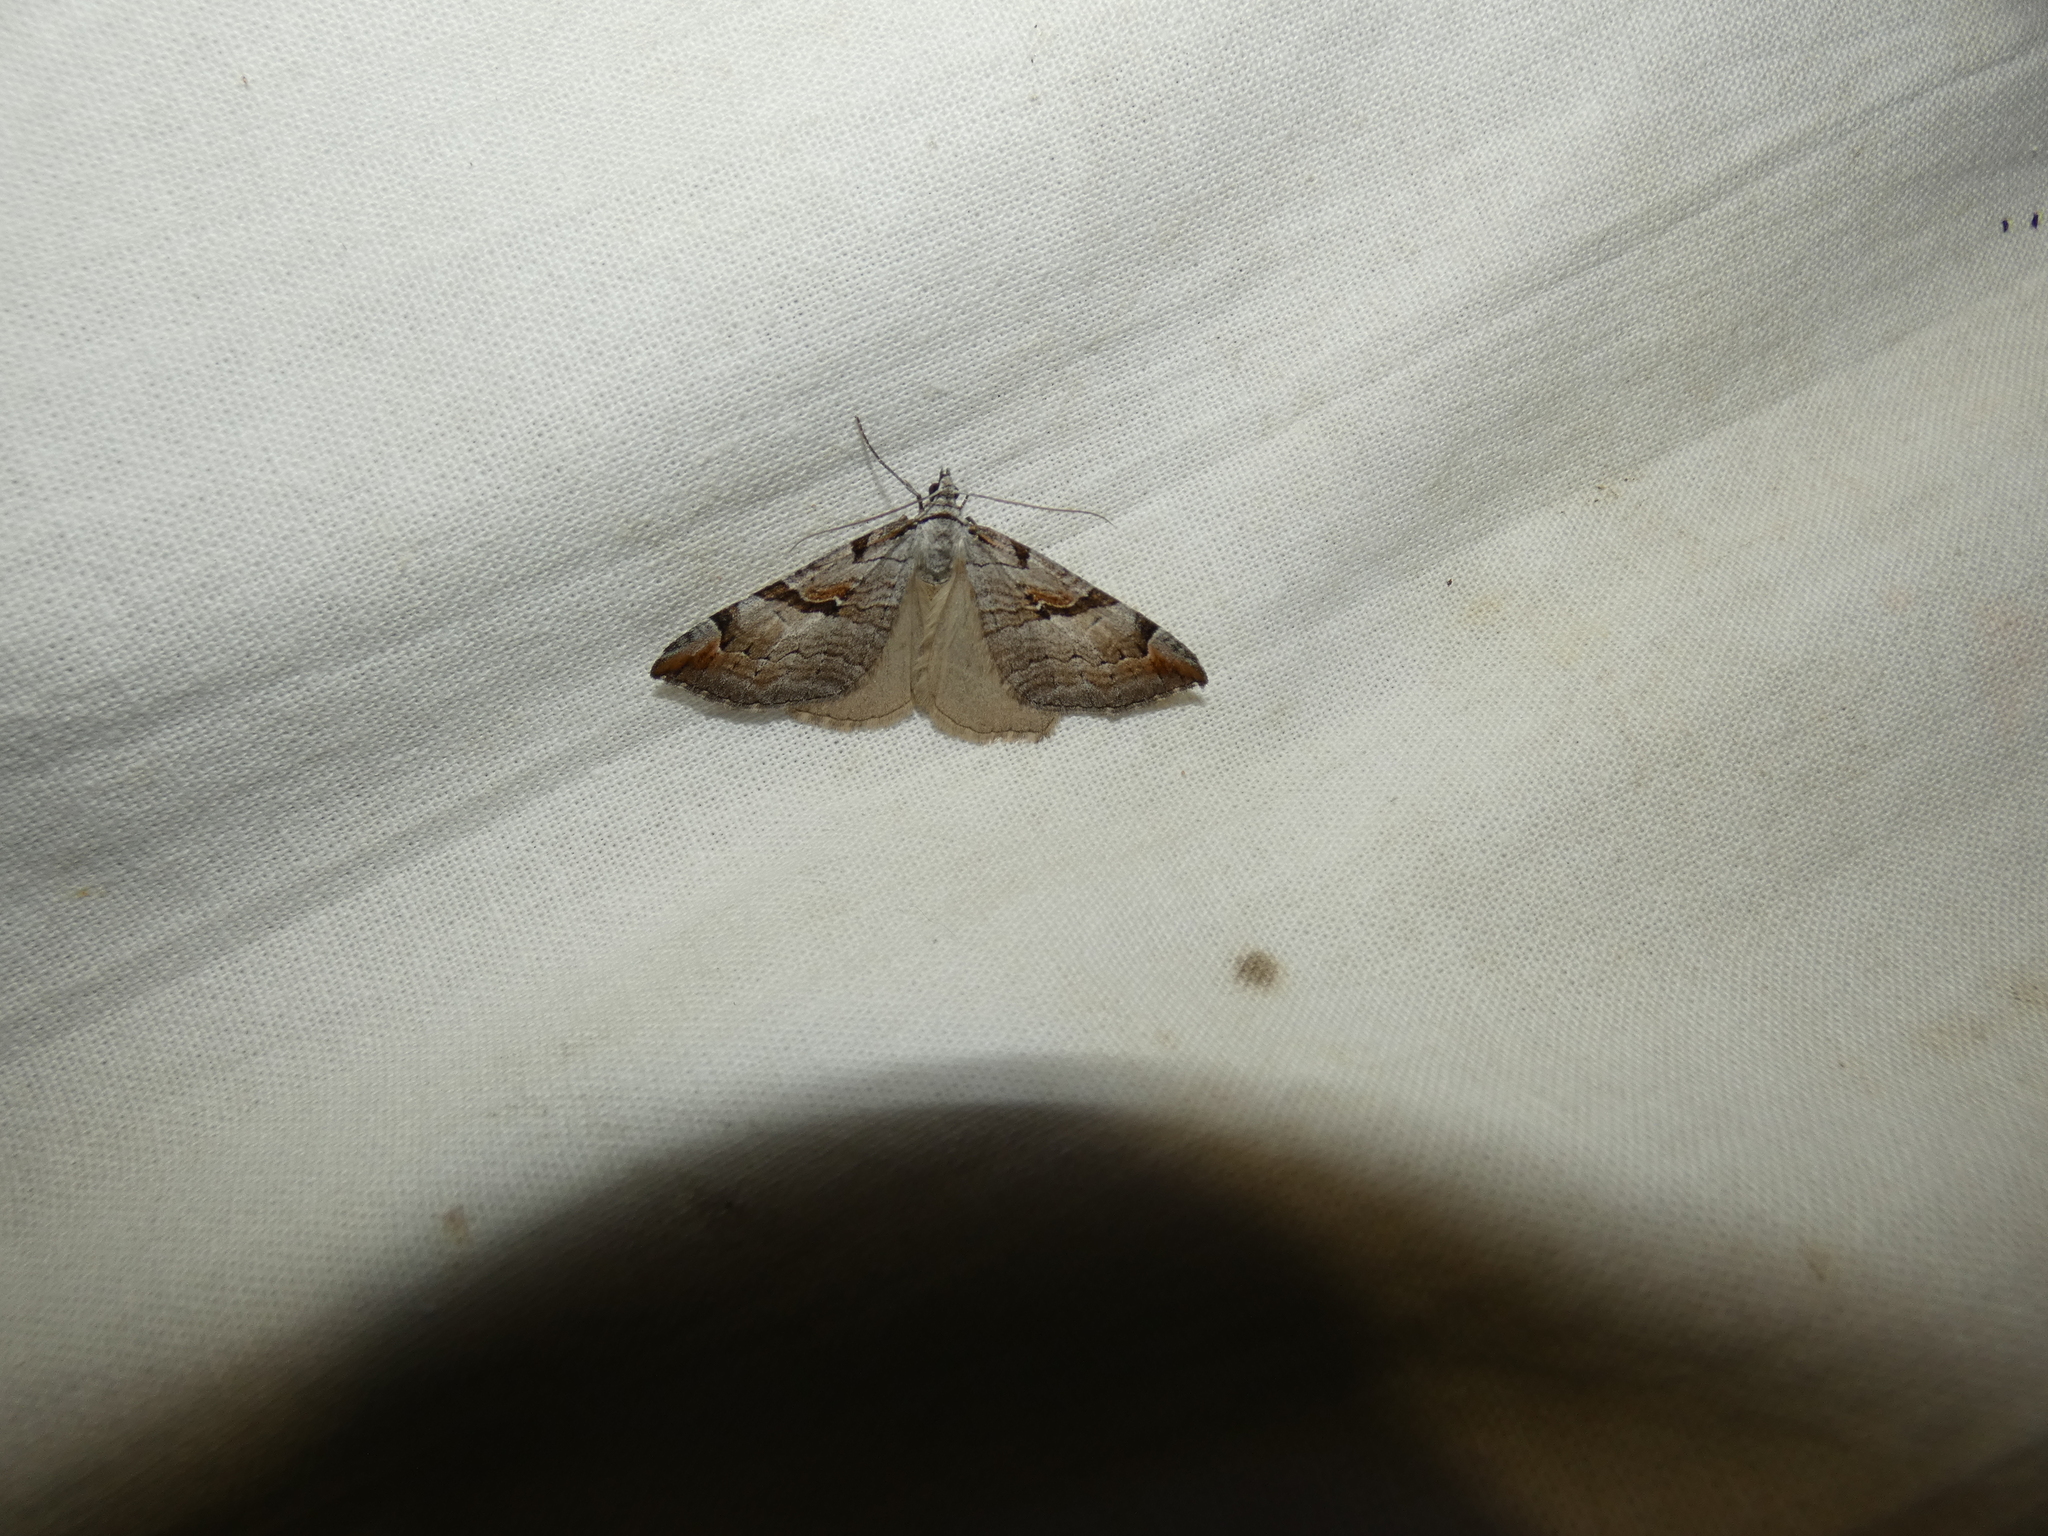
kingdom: Animalia
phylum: Arthropoda
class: Insecta
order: Lepidoptera
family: Geometridae
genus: Aplocera
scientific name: Aplocera praeformata
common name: Purple treble-bar
